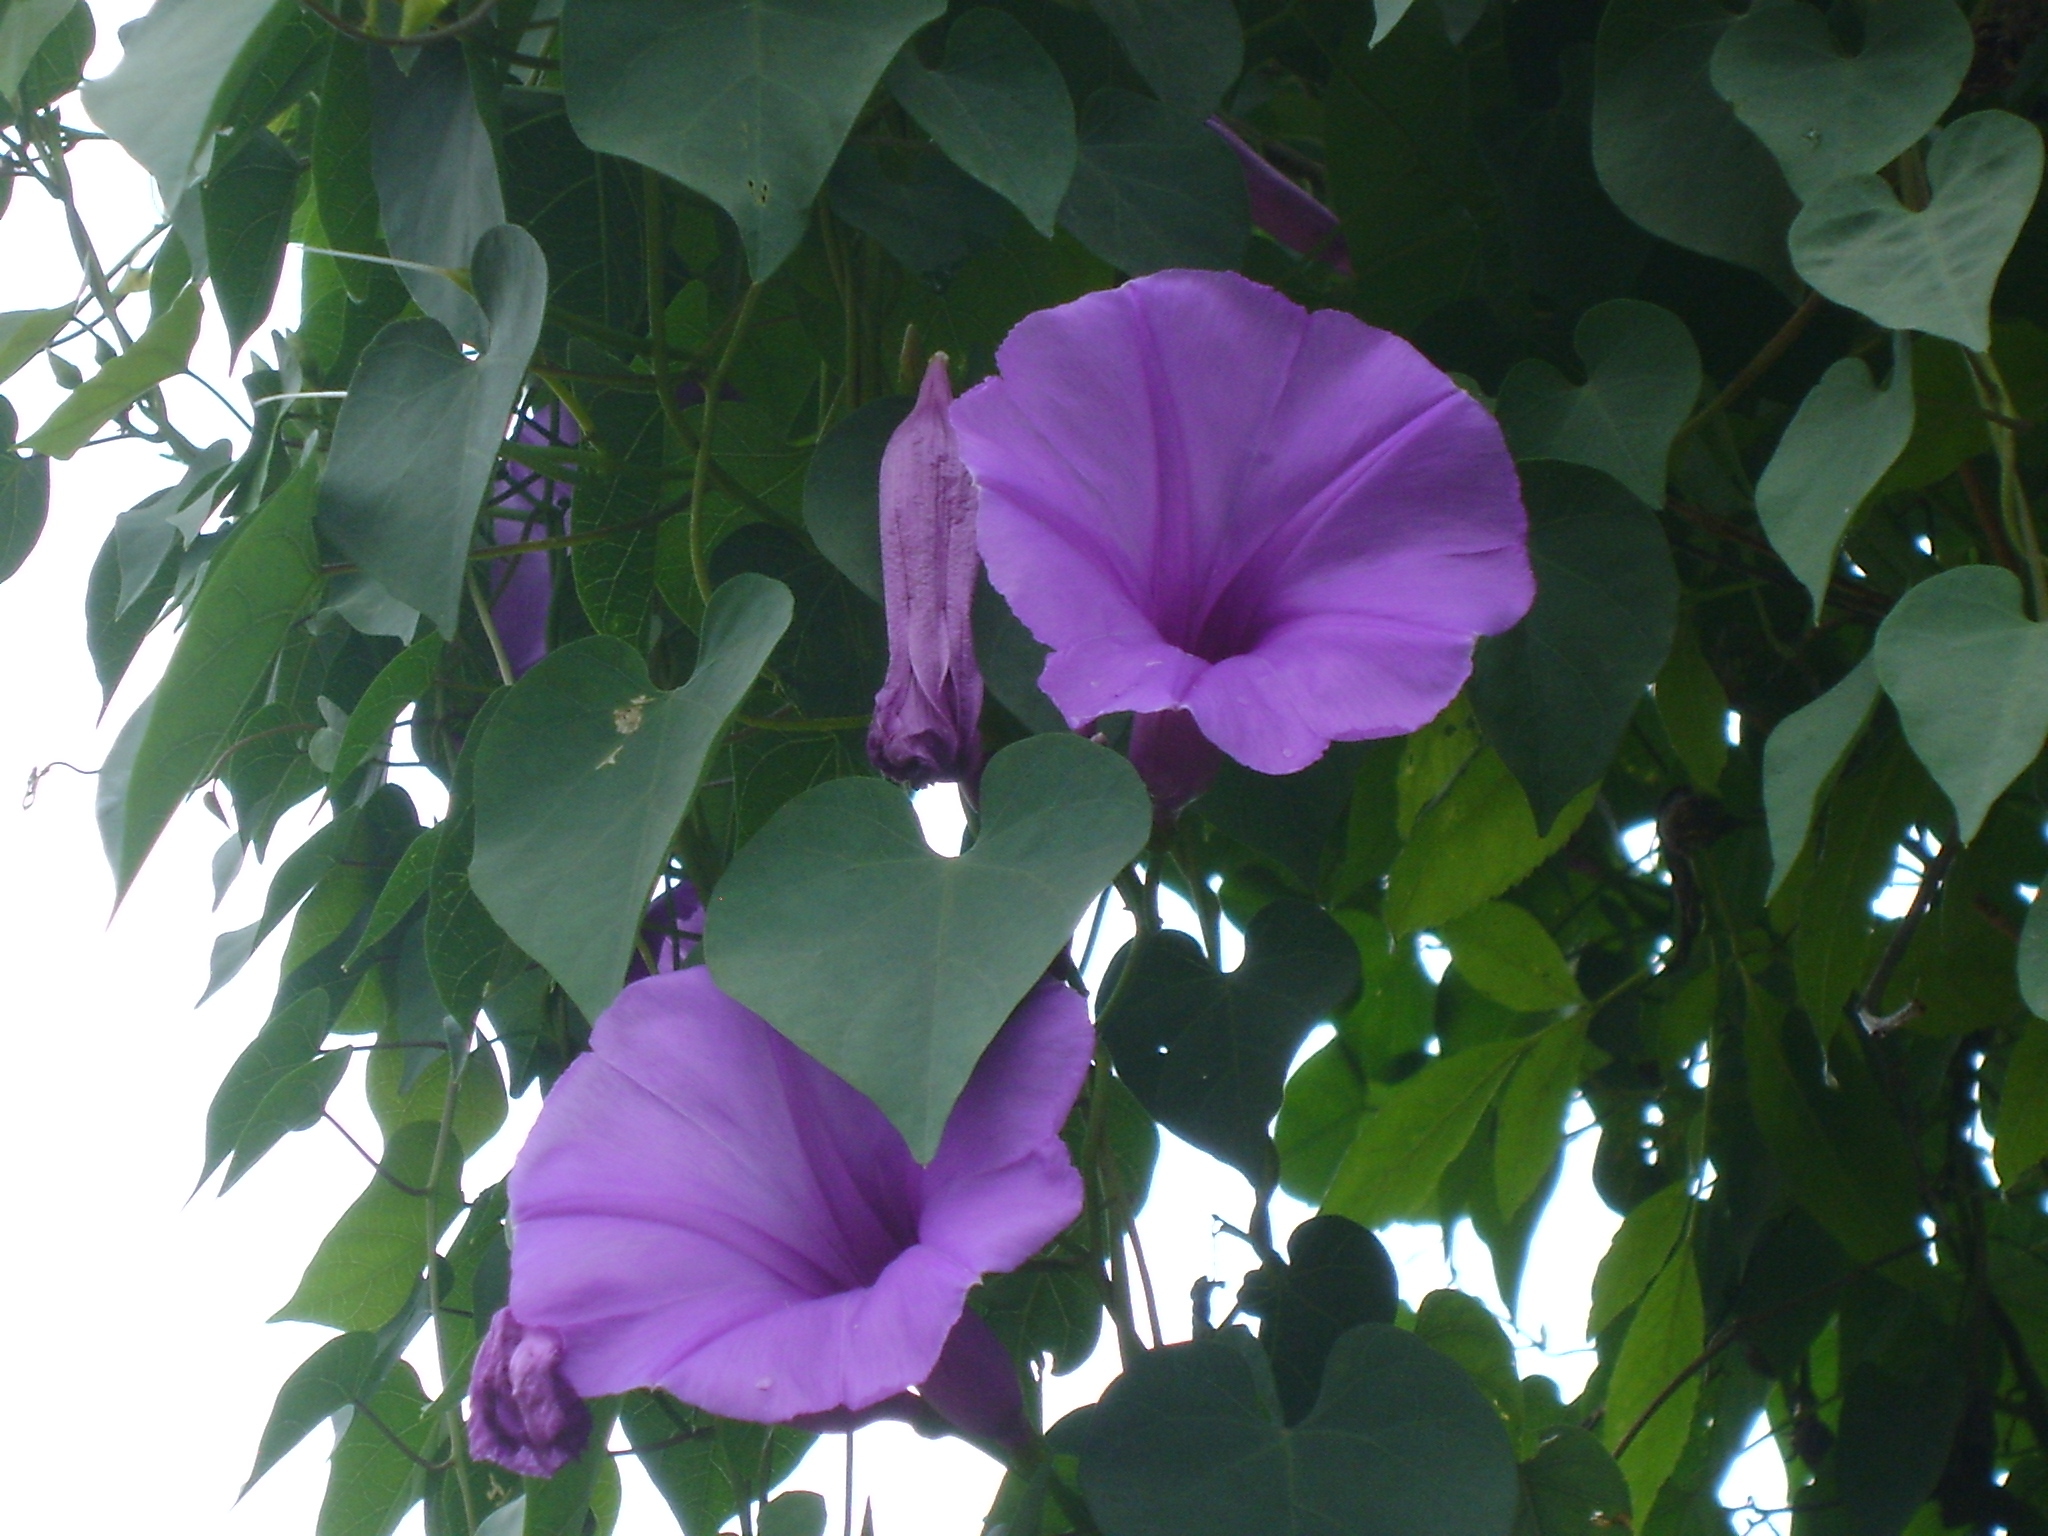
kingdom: Plantae
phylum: Tracheophyta
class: Magnoliopsida
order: Solanales
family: Convolvulaceae
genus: Ipomoea
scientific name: Ipomoea pedicellaris
